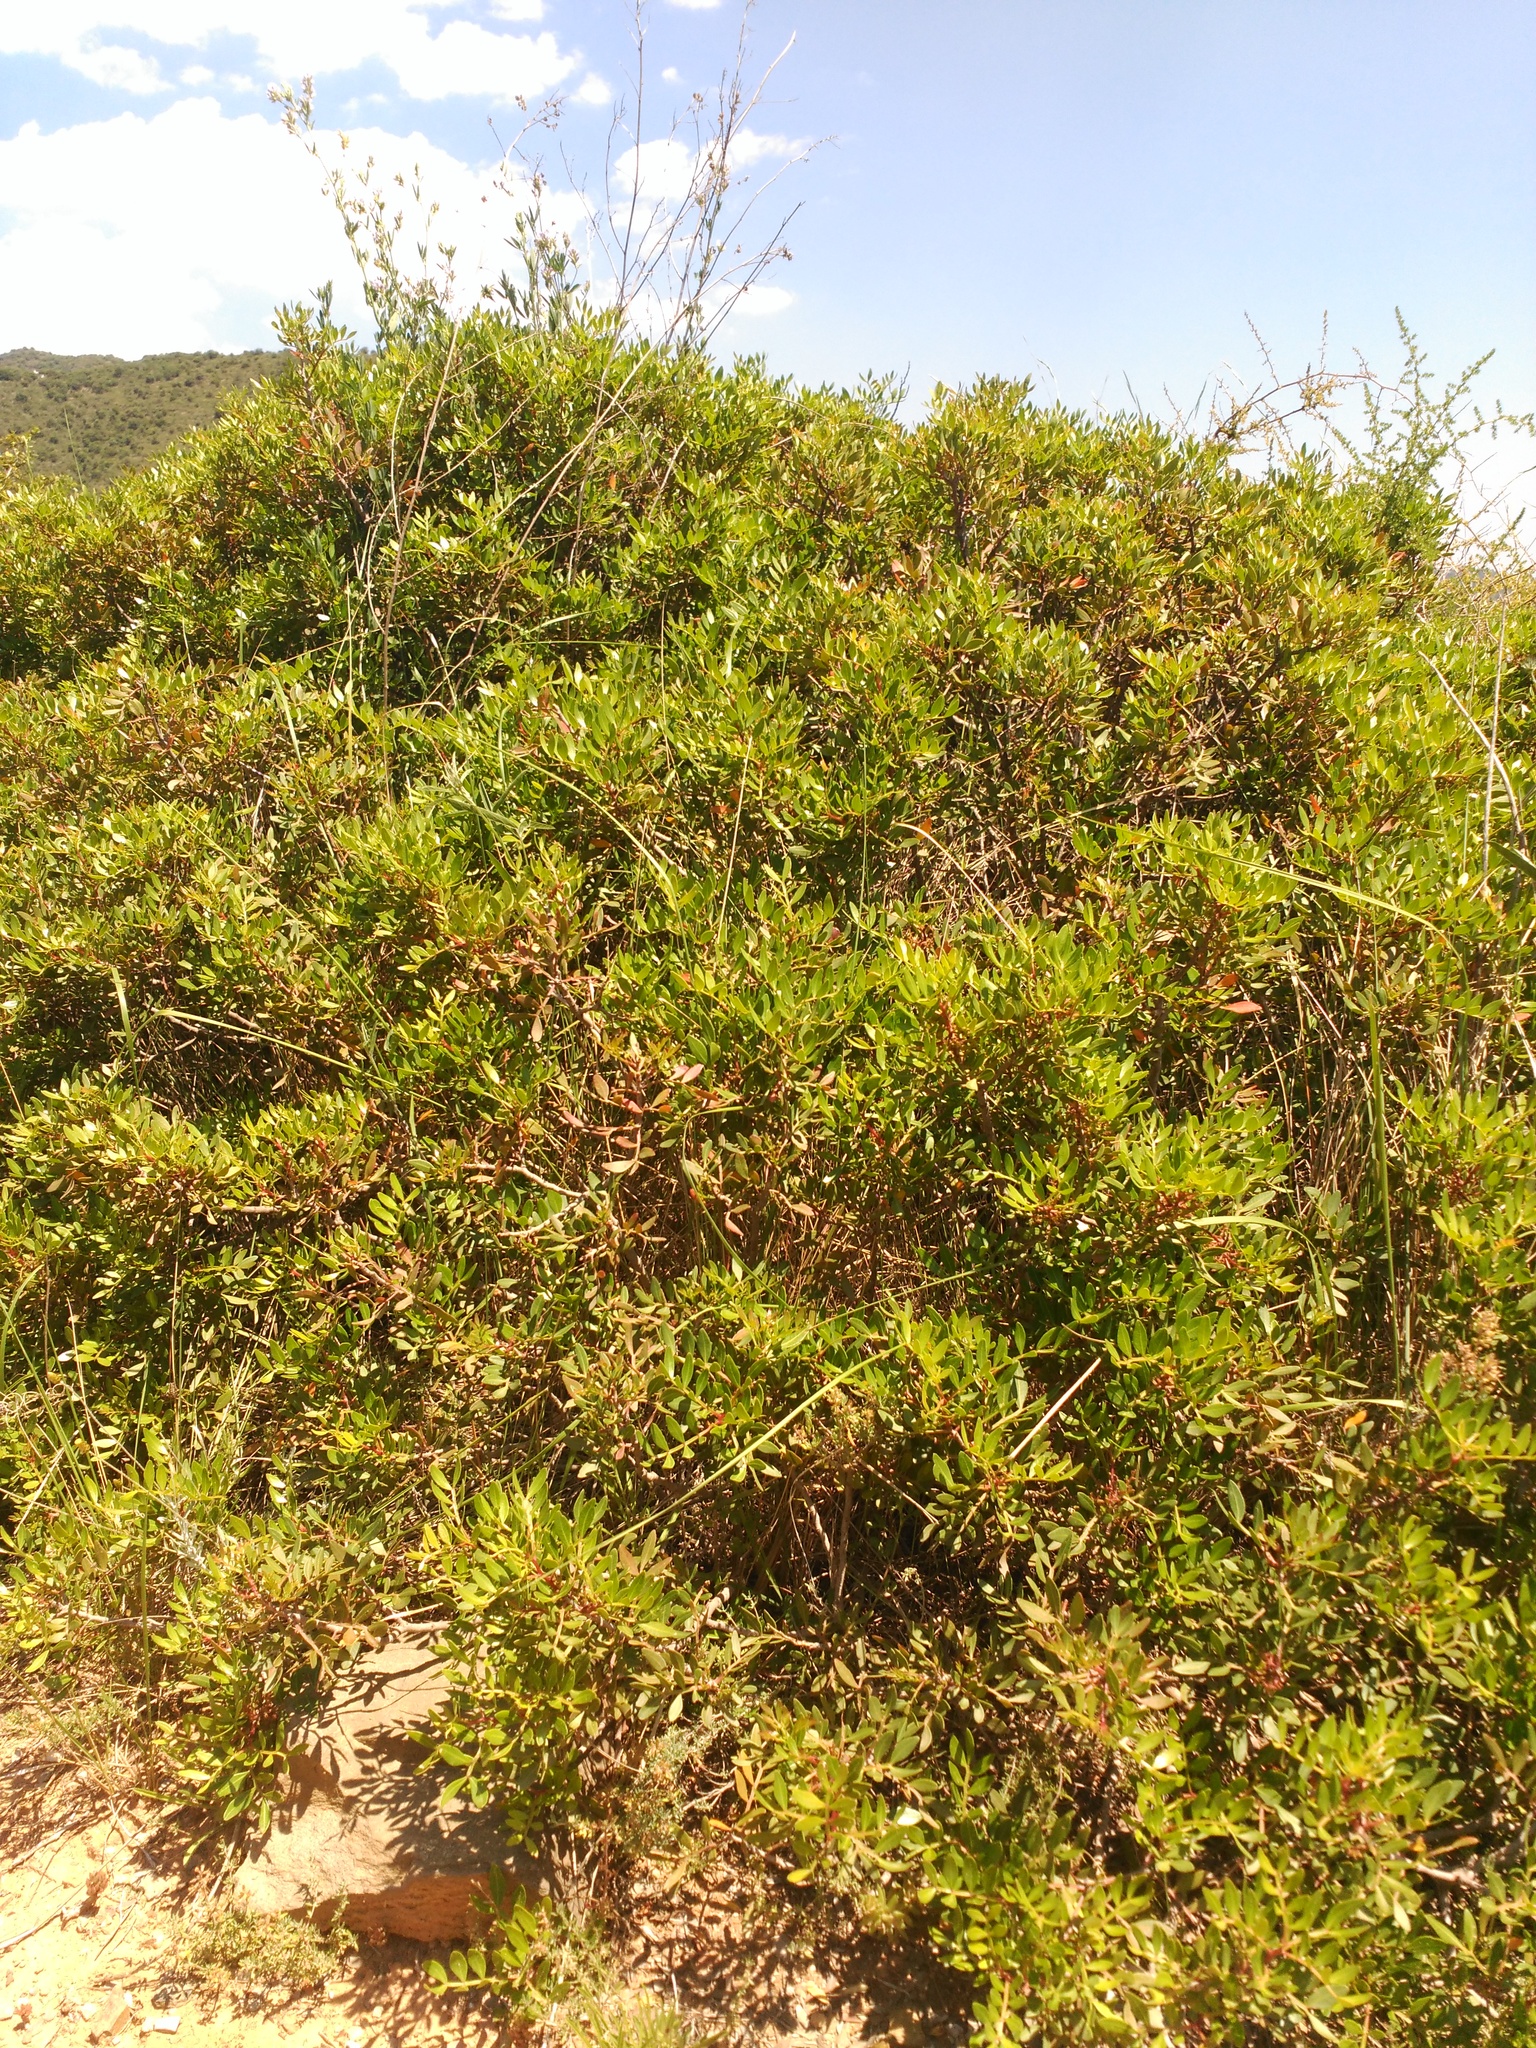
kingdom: Plantae
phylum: Tracheophyta
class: Magnoliopsida
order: Sapindales
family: Anacardiaceae
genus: Pistacia
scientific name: Pistacia lentiscus
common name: Lentisk
